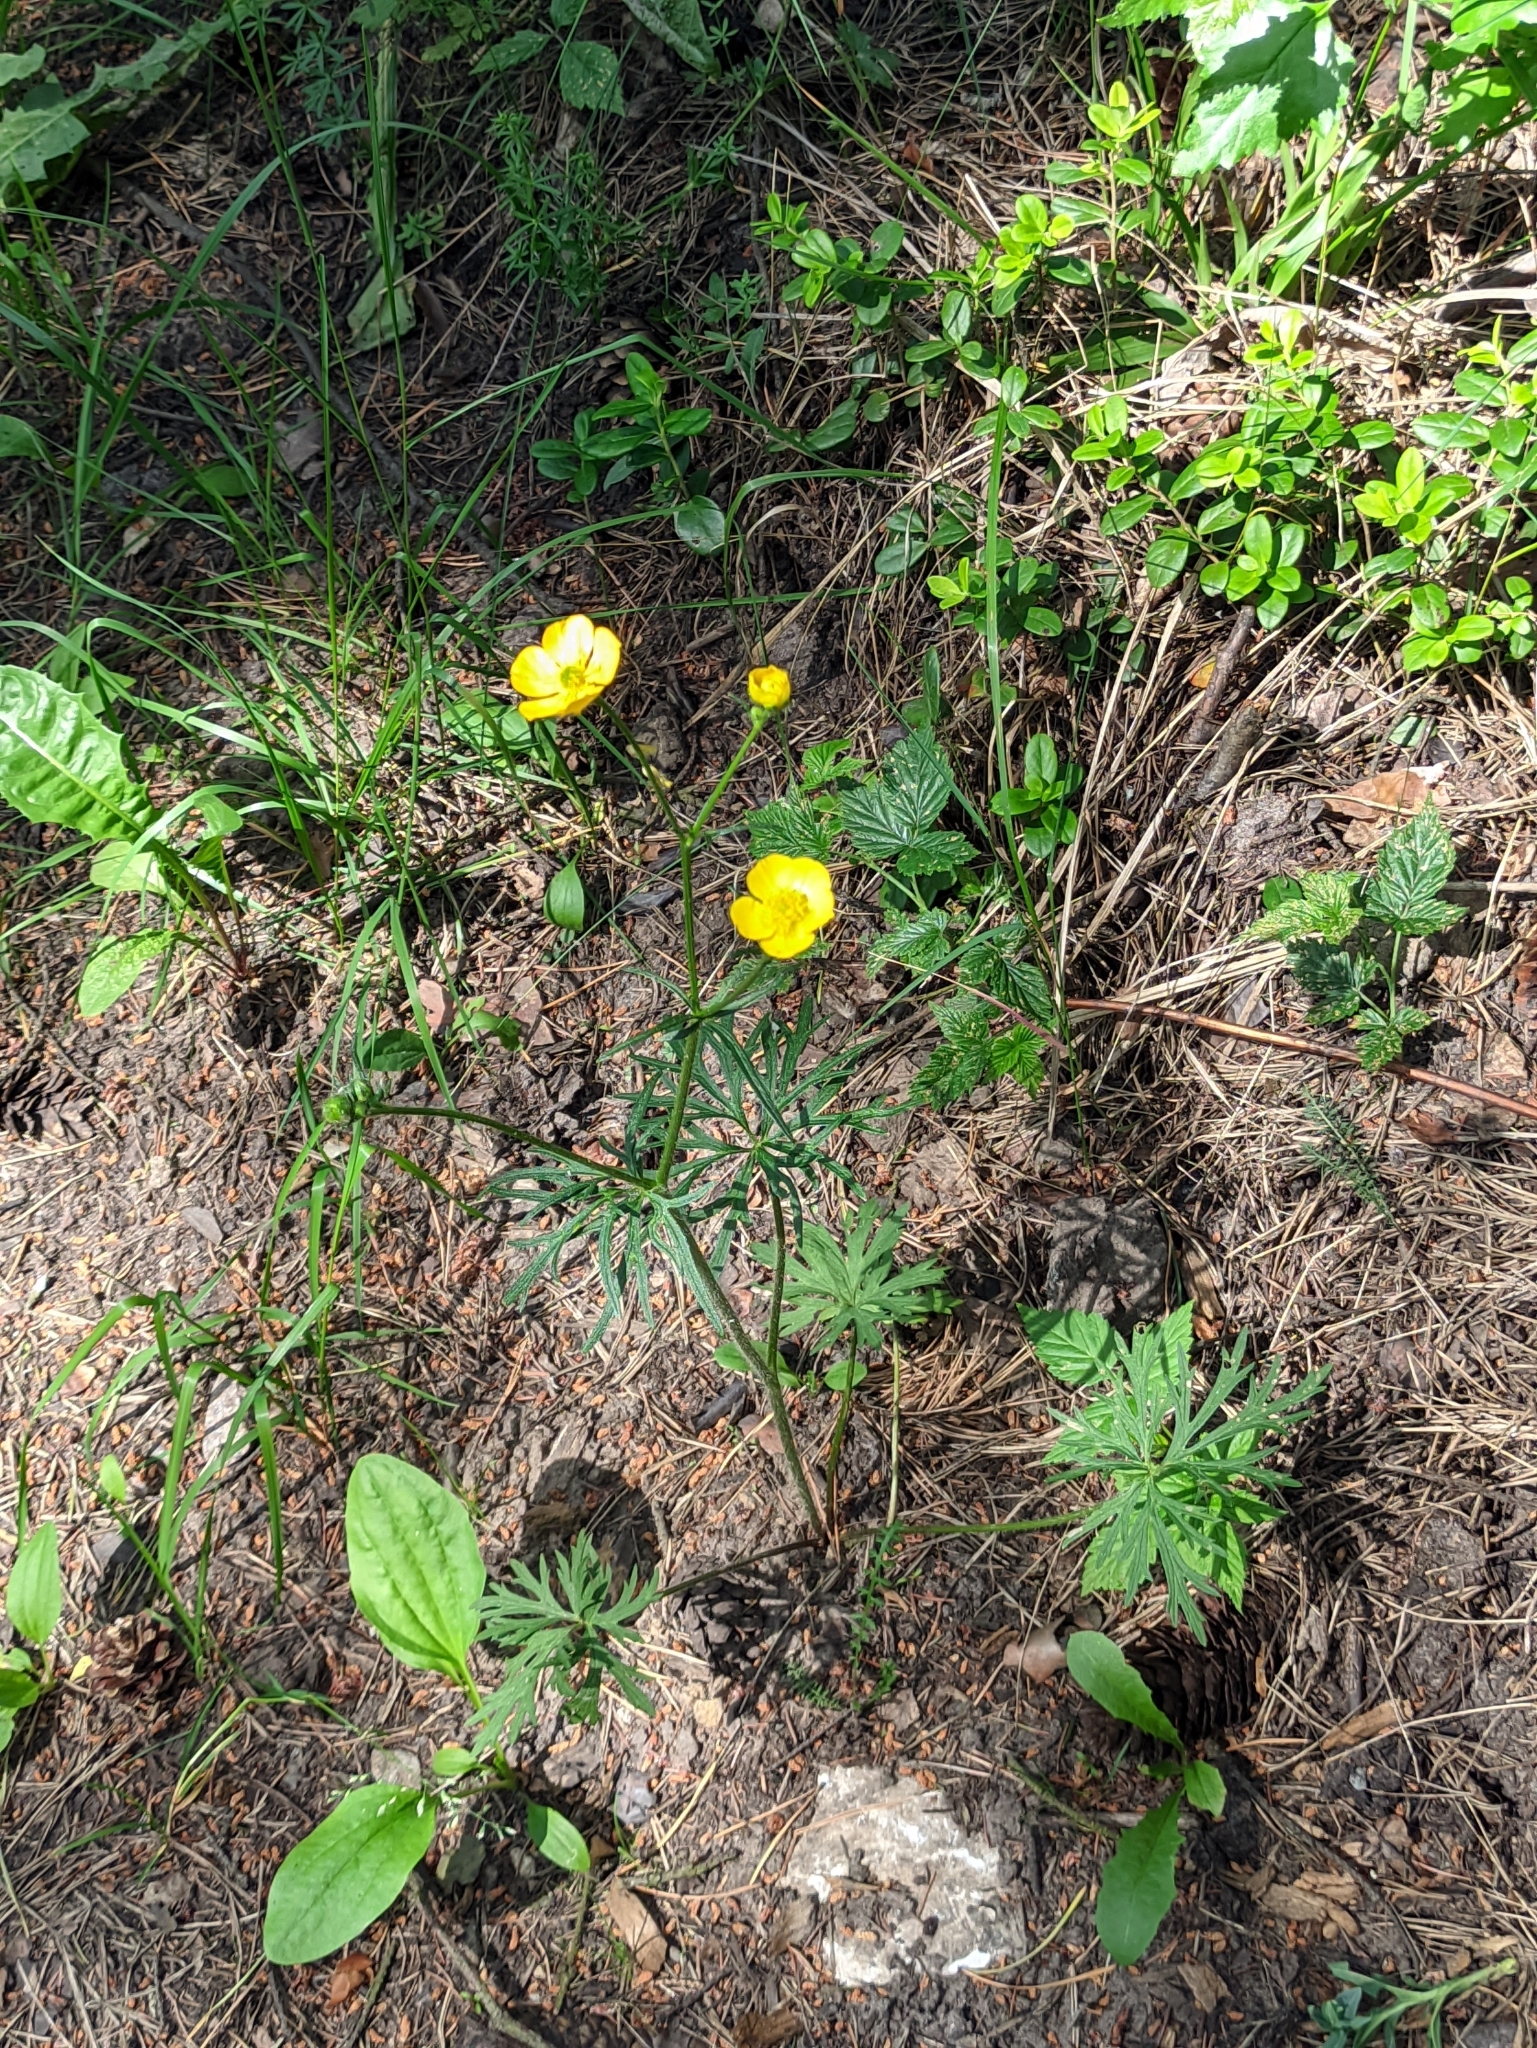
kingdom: Plantae
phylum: Tracheophyta
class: Magnoliopsida
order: Ranunculales
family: Ranunculaceae
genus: Ranunculus
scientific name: Ranunculus polyanthemos
